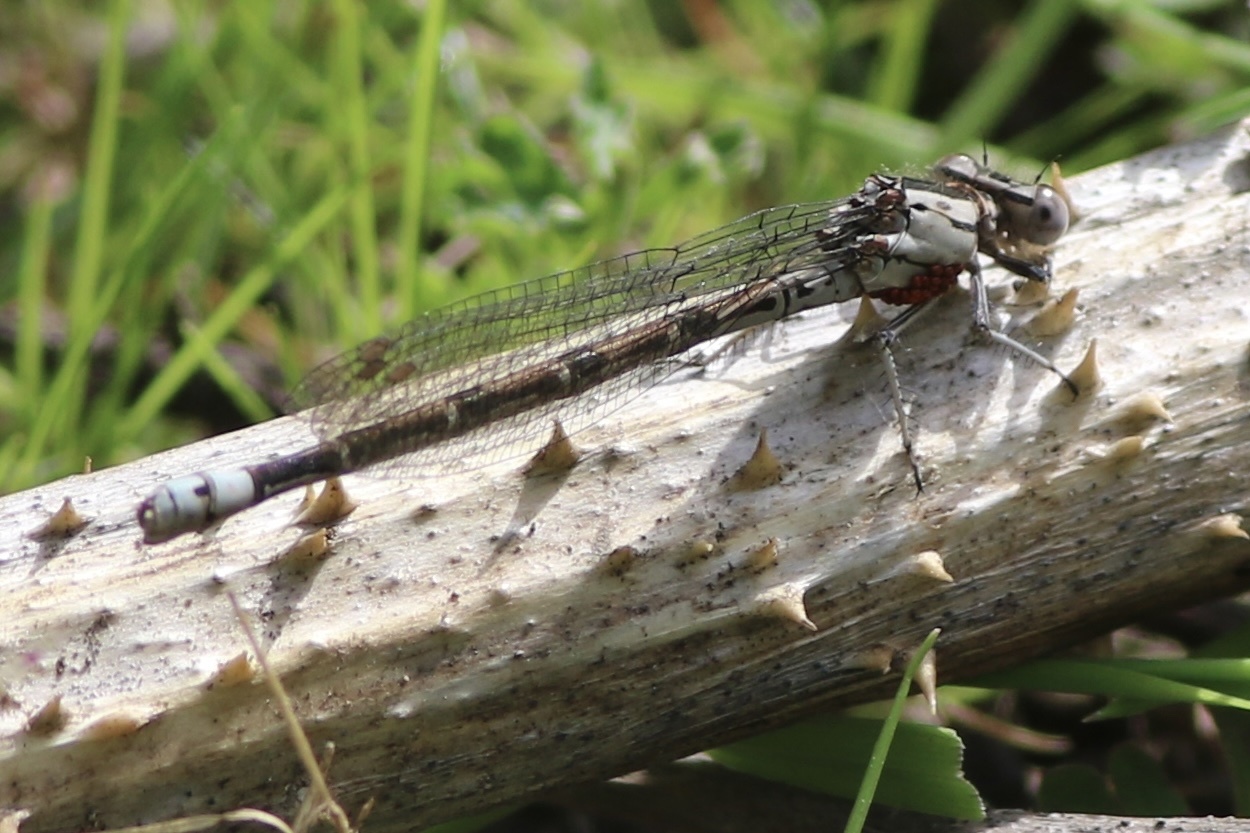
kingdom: Animalia
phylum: Arthropoda
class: Insecta
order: Odonata
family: Coenagrionidae
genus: Argia
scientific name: Argia vivida
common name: Vivid dancer
